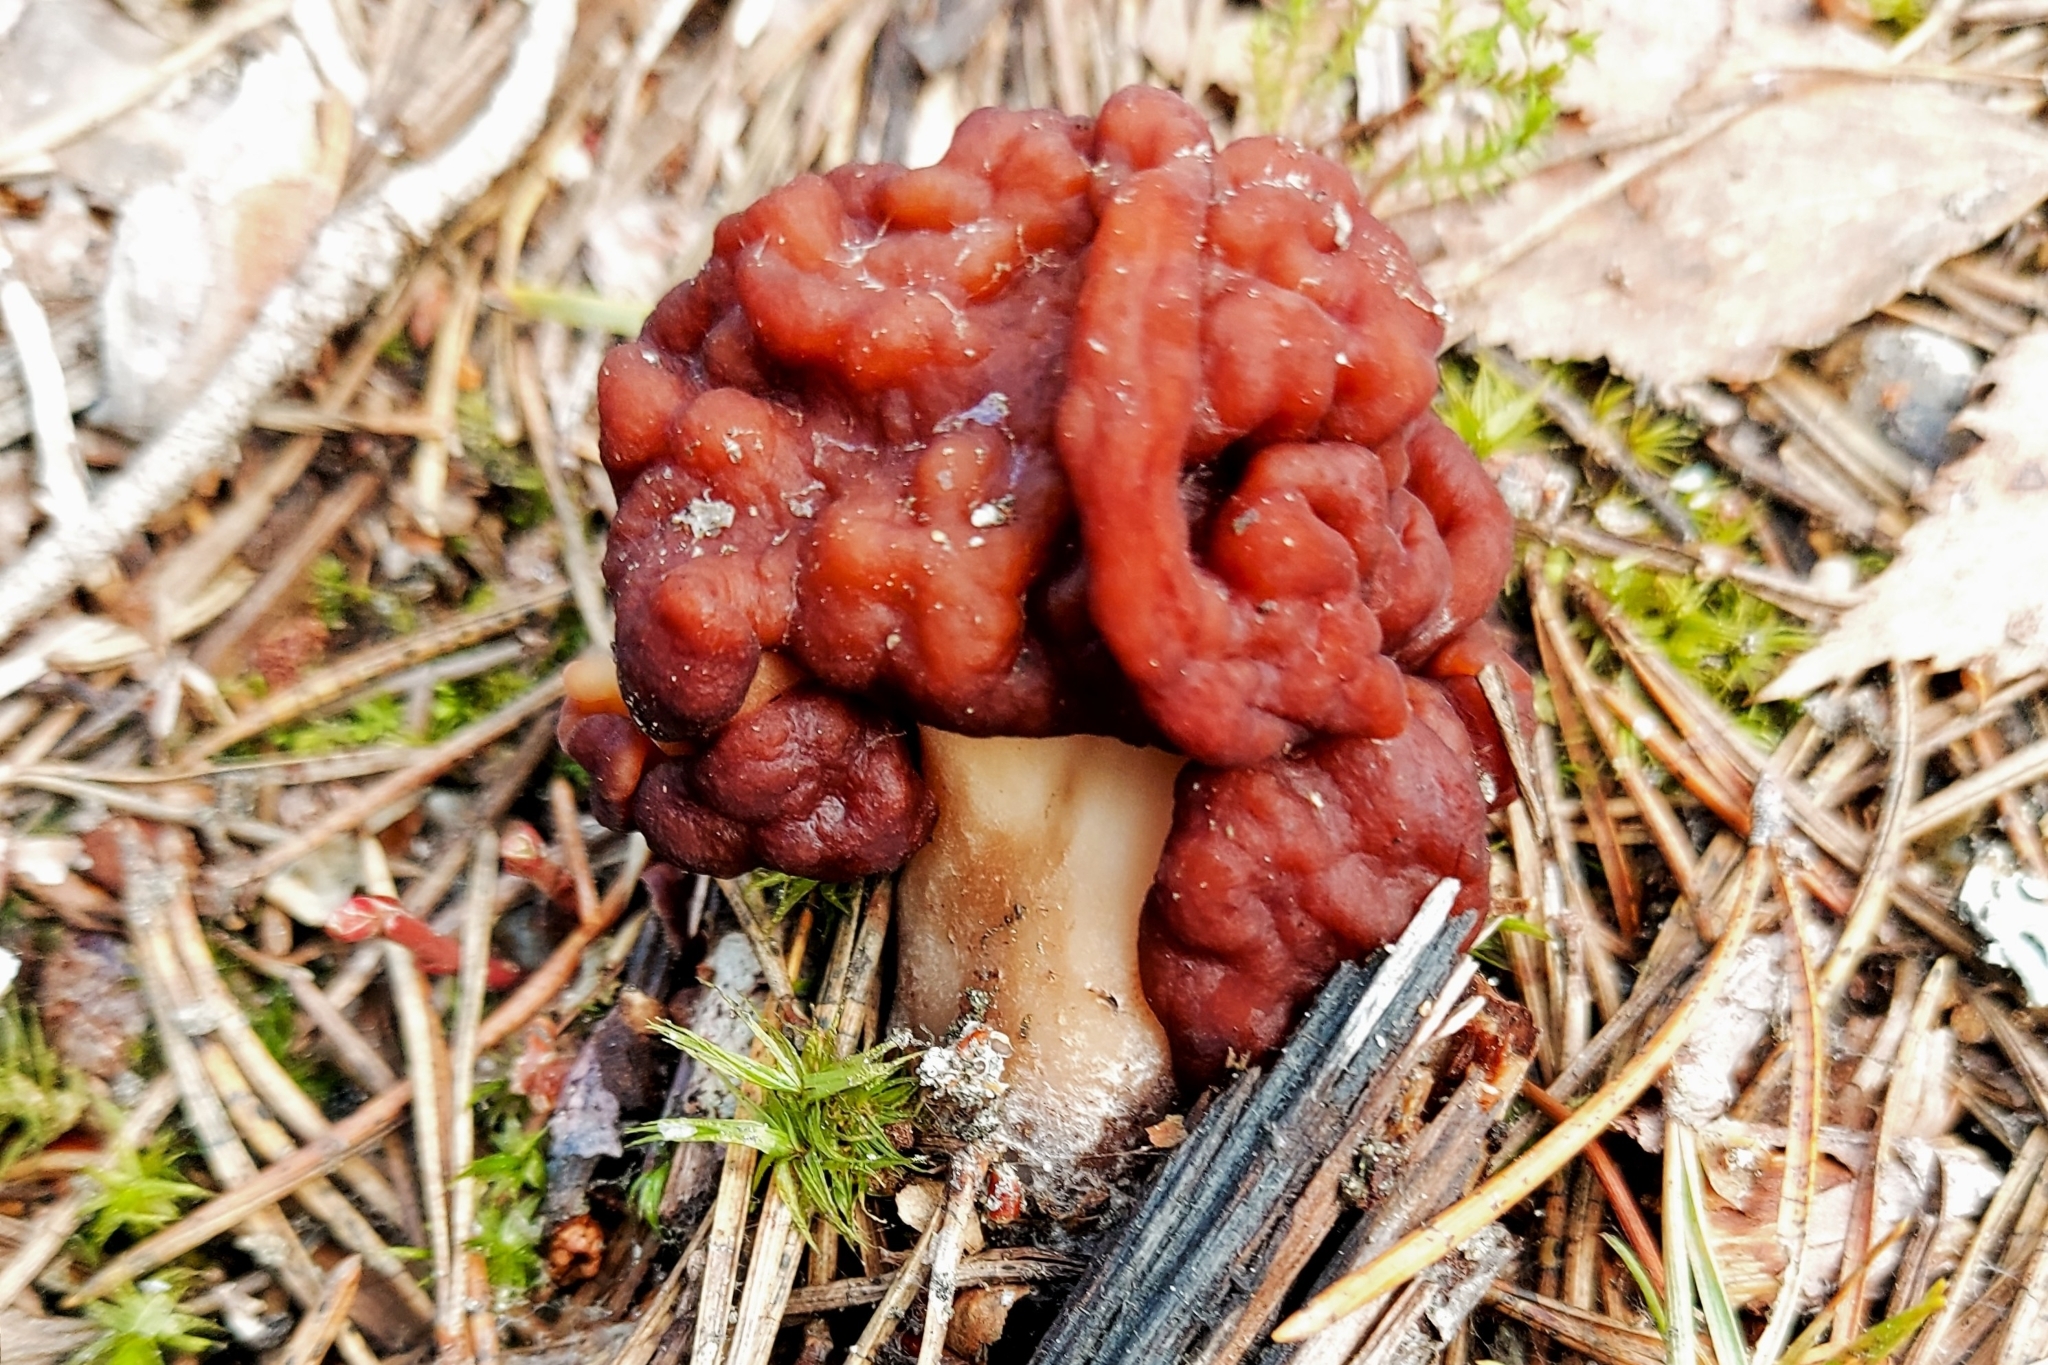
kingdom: Fungi
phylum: Ascomycota
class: Pezizomycetes
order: Pezizales
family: Discinaceae
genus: Gyromitra
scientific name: Gyromitra esculenta
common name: False morel
